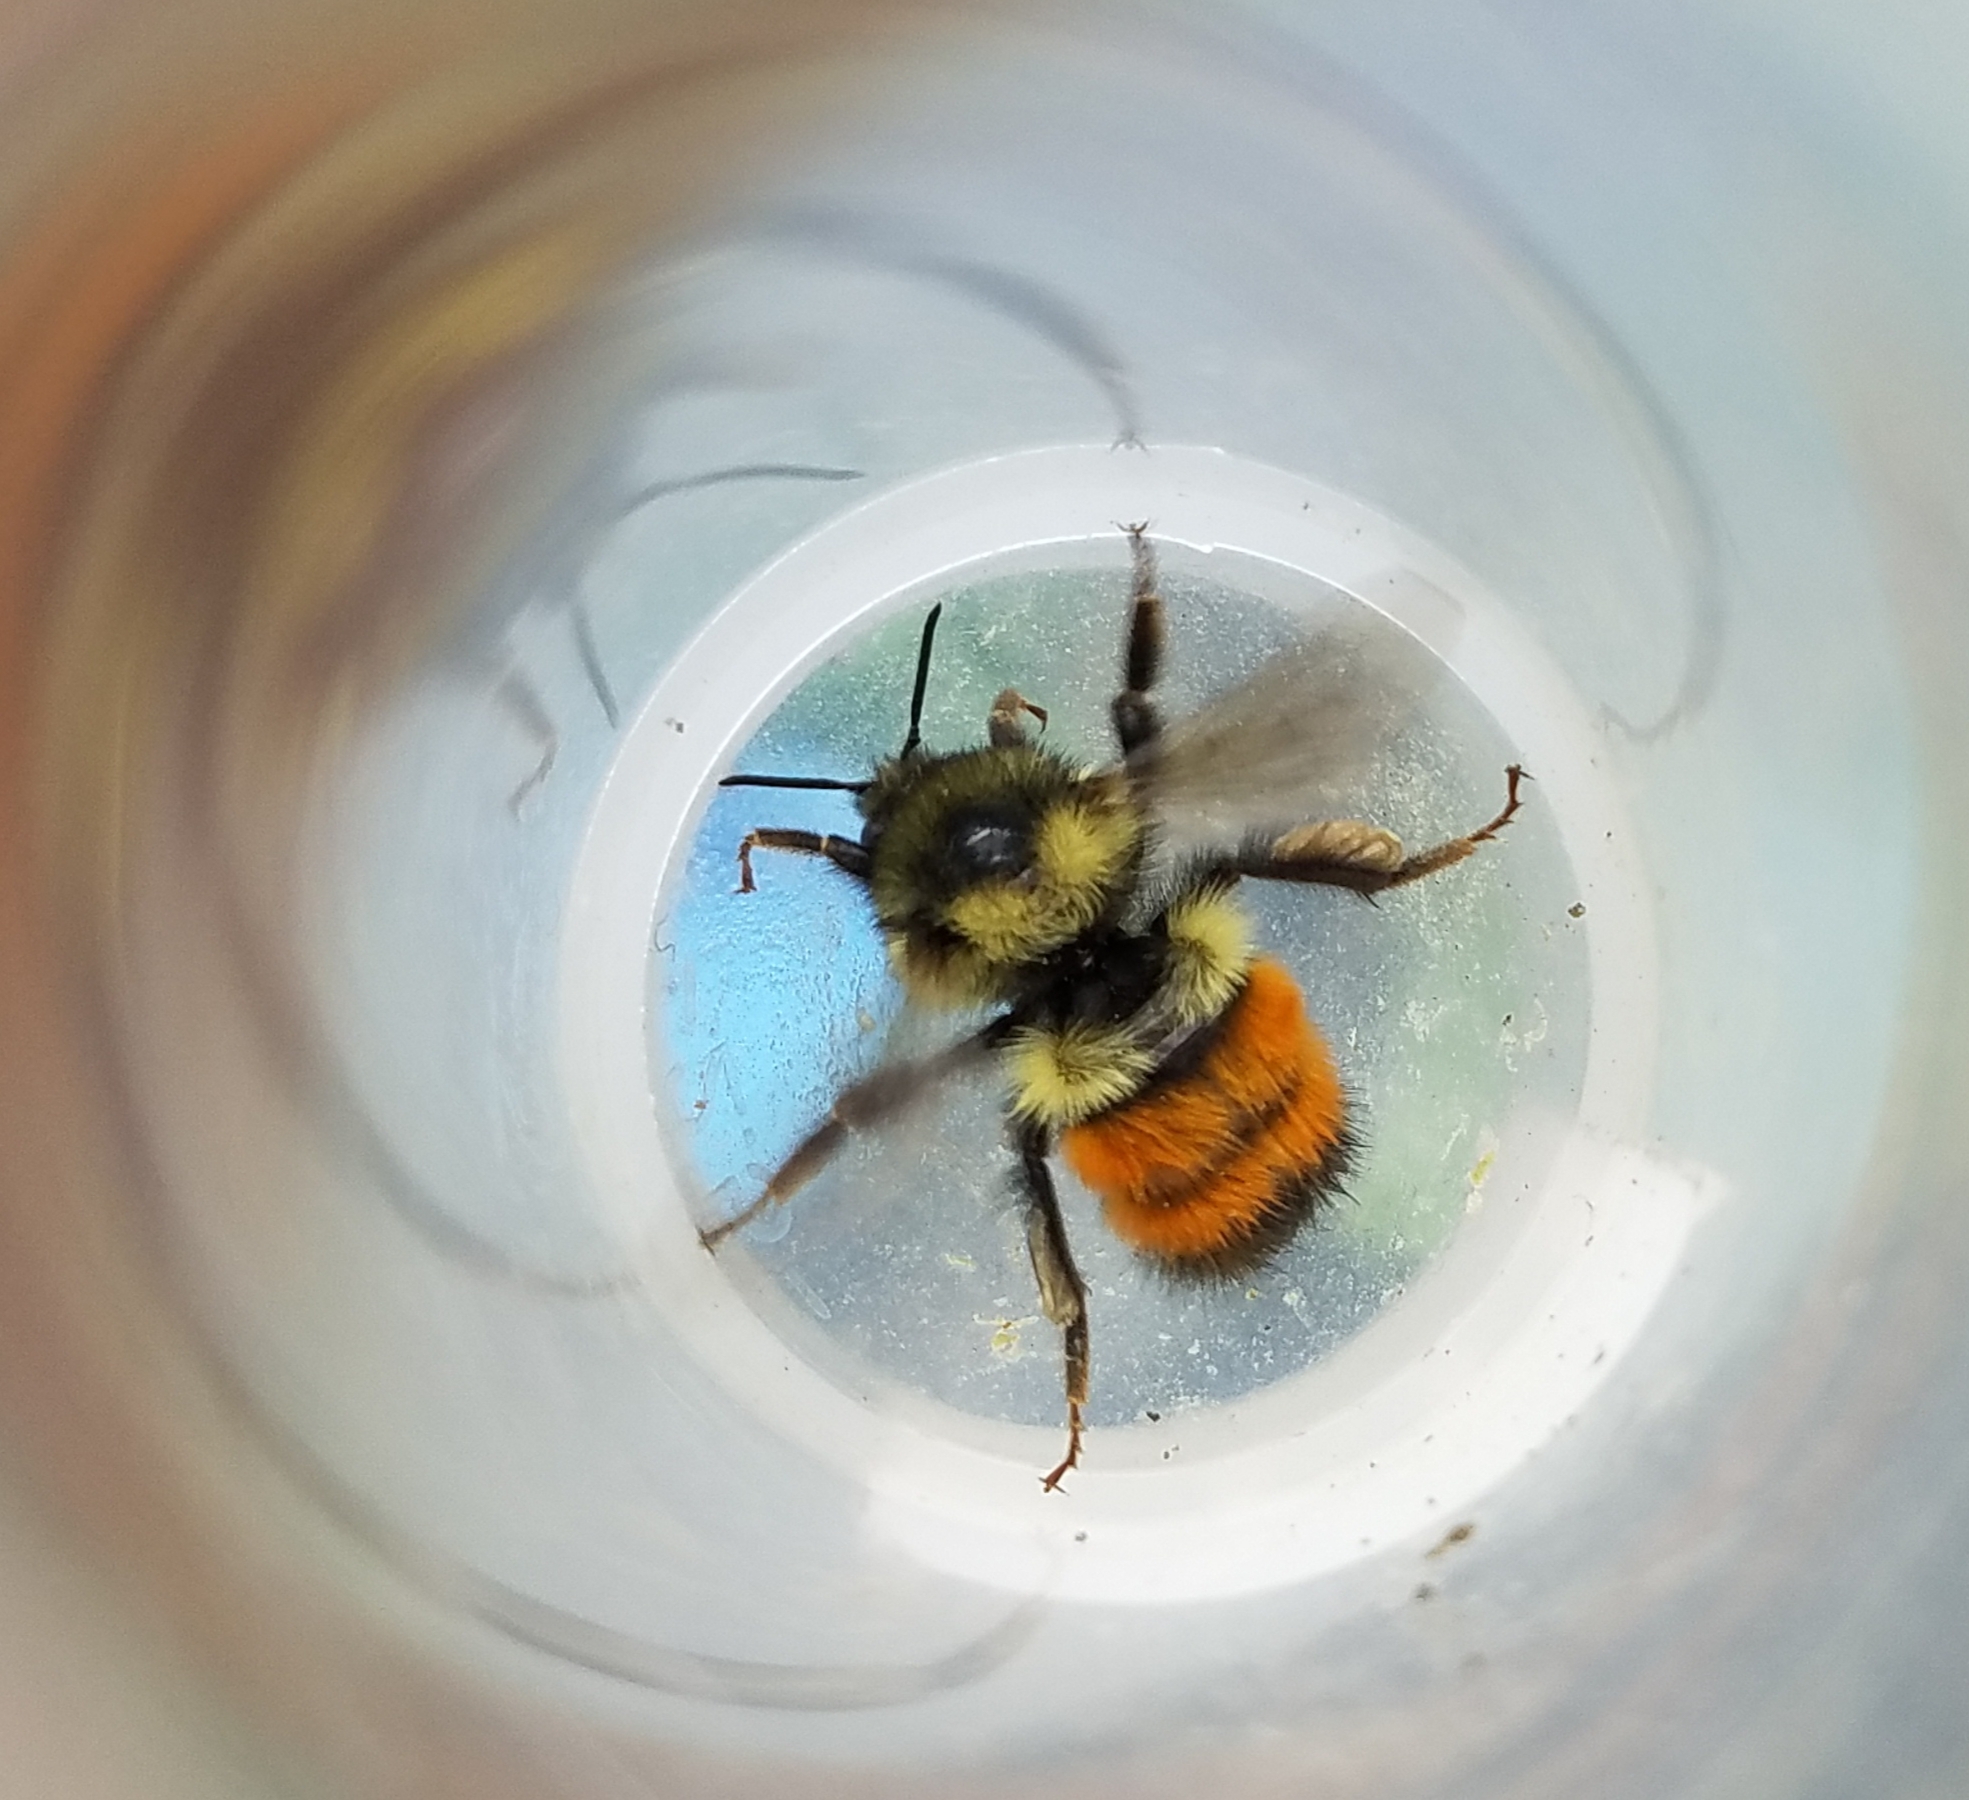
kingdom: Animalia
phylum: Arthropoda
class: Insecta
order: Hymenoptera
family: Apidae
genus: Bombus
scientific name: Bombus melanopygus
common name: Black tail bumble bee
